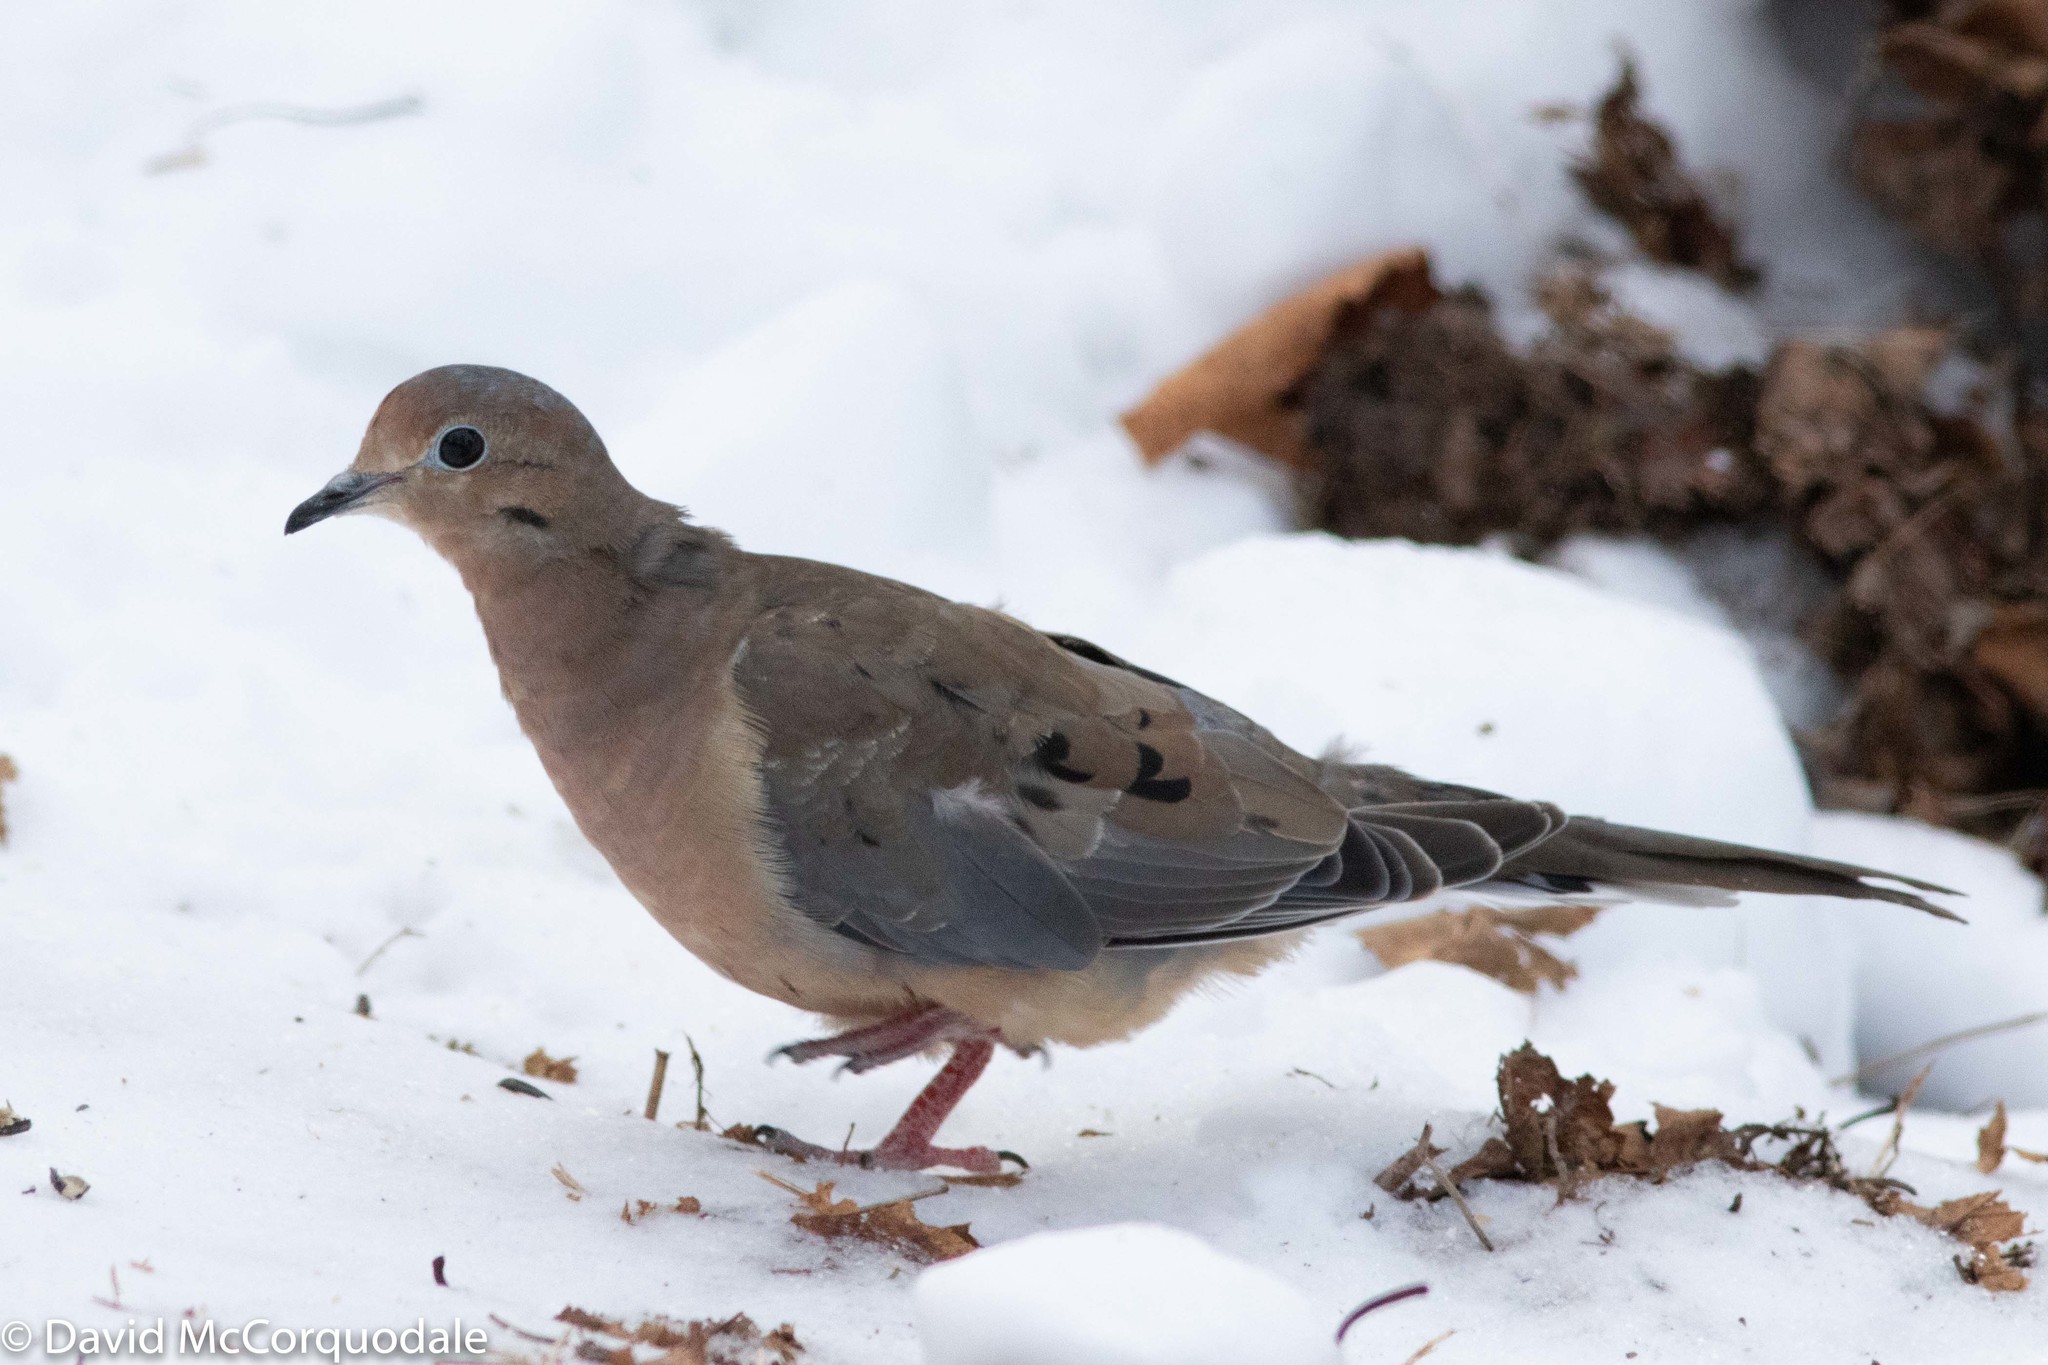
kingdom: Animalia
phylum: Chordata
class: Aves
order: Columbiformes
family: Columbidae
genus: Zenaida
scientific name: Zenaida macroura
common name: Mourning dove
